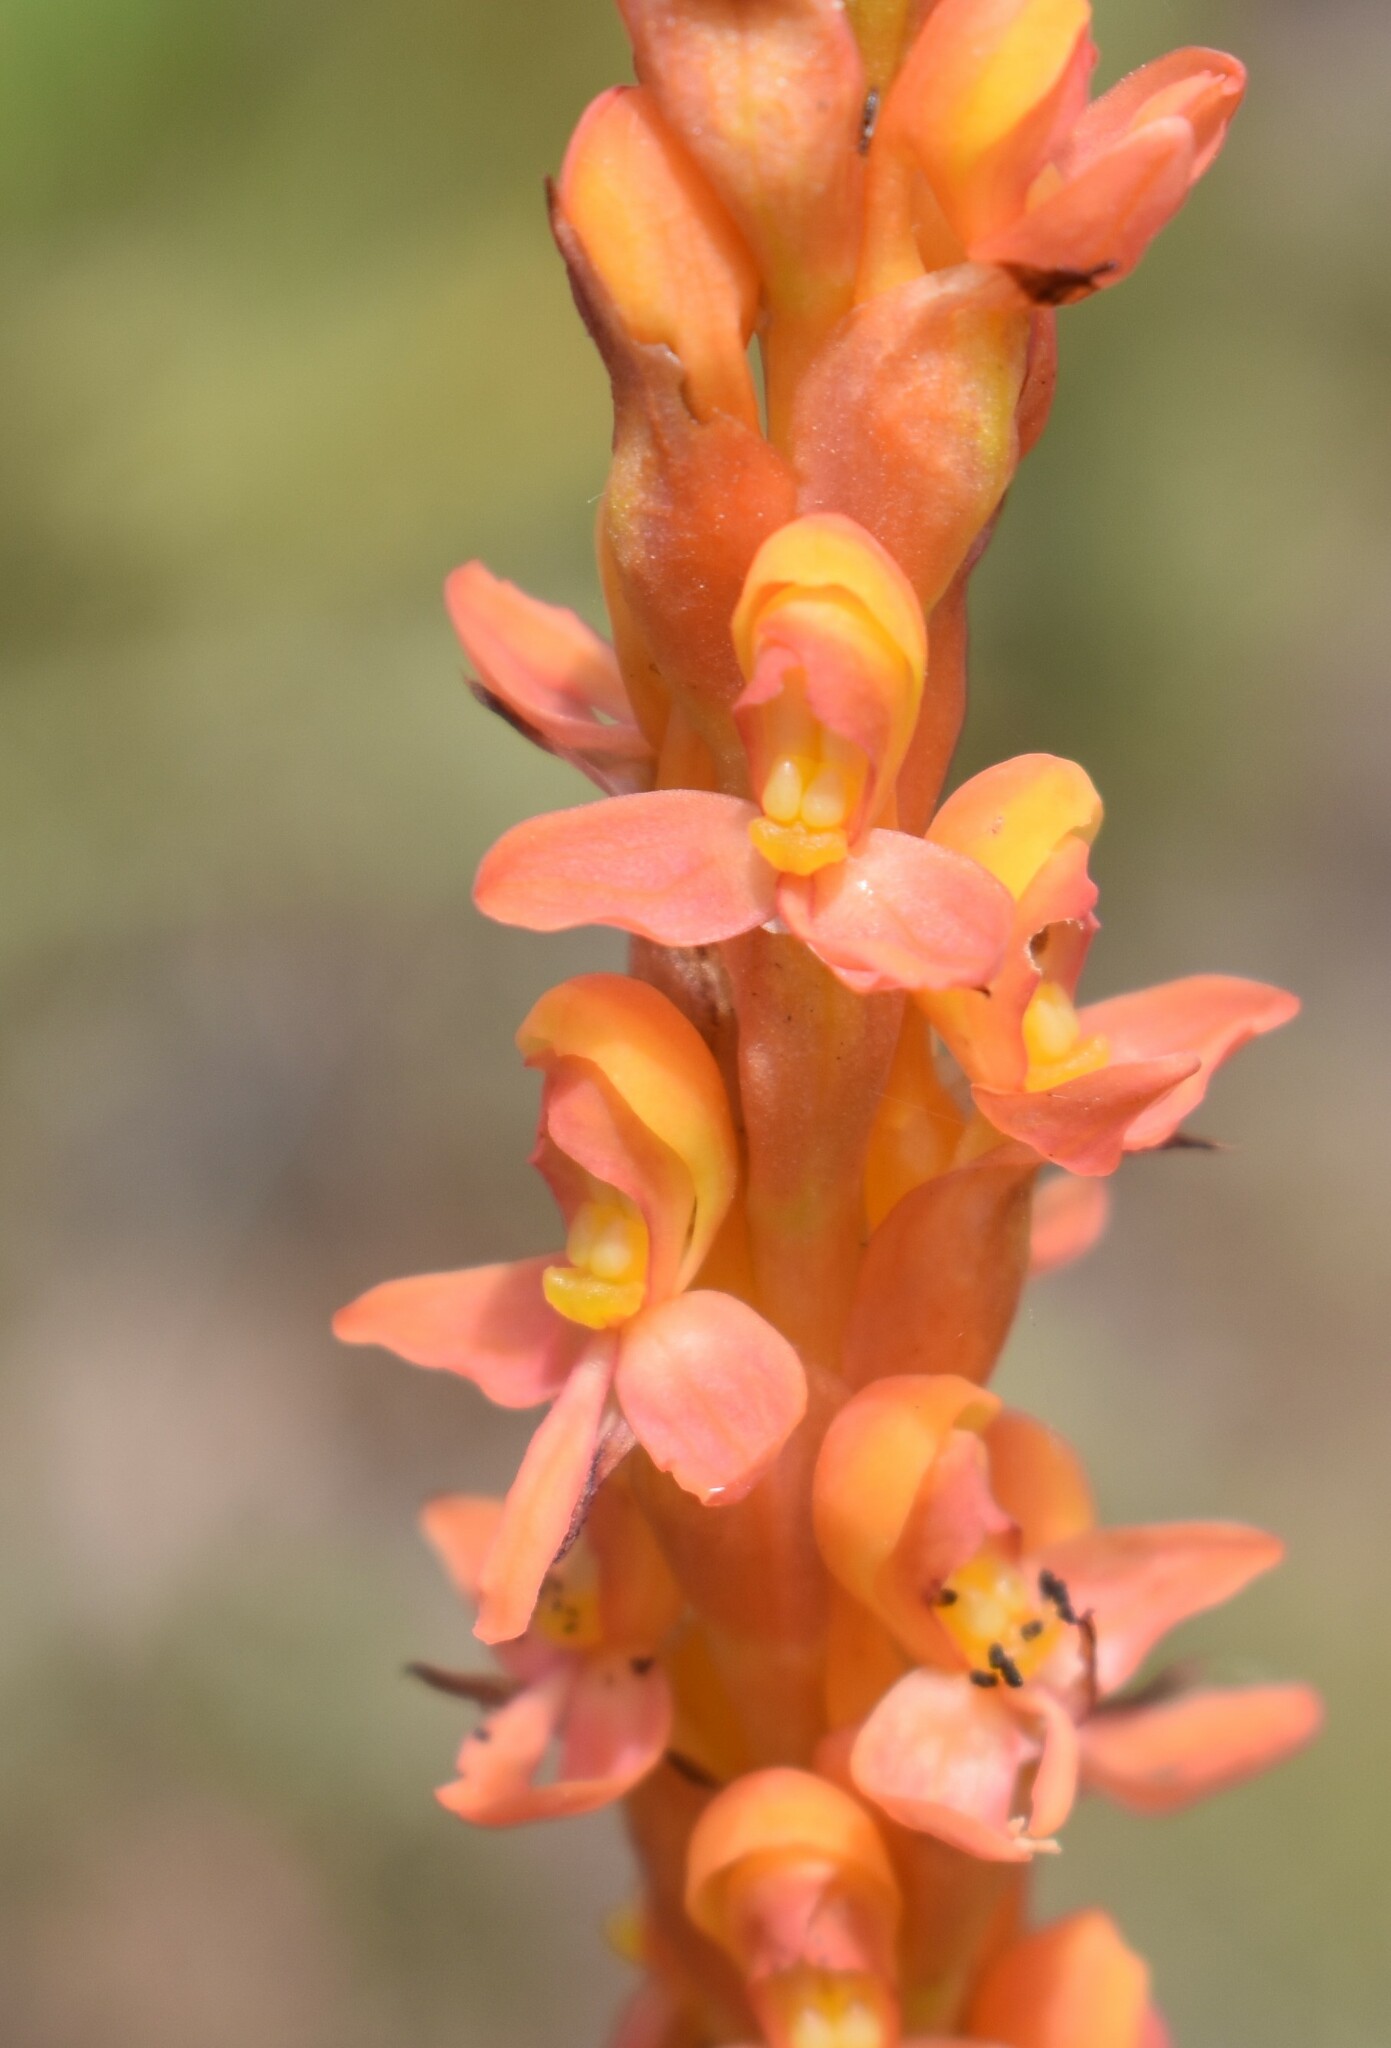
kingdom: Plantae
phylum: Tracheophyta
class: Liliopsida
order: Asparagales
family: Orchidaceae
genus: Disa
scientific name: Disa chrysostachya
